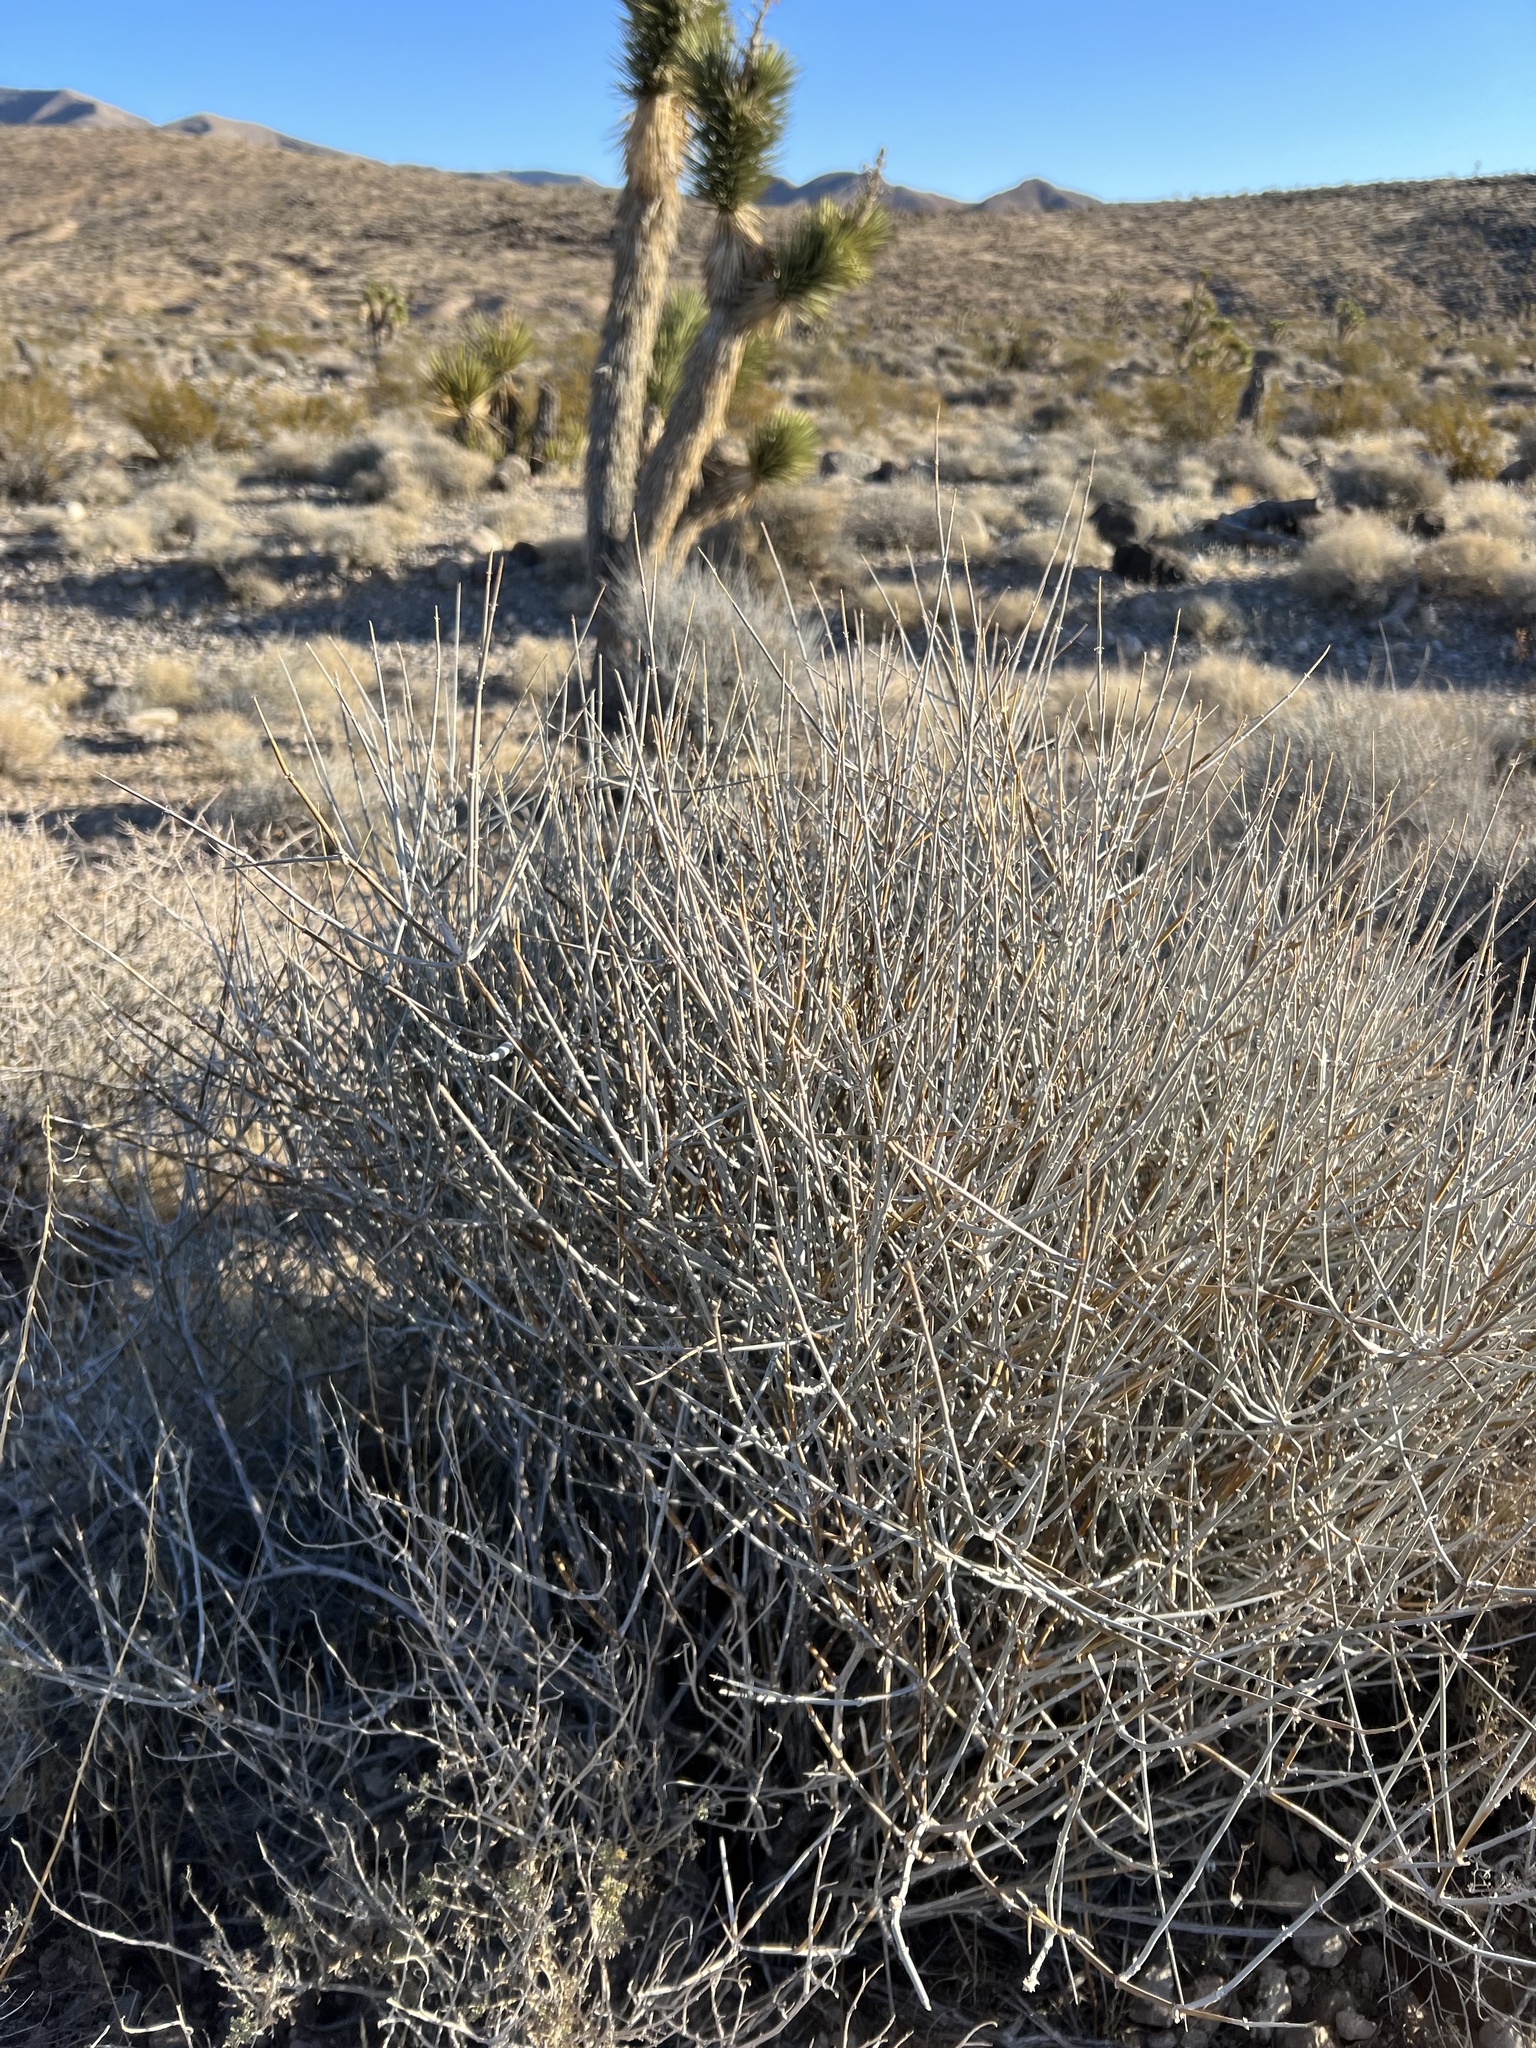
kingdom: Plantae
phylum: Tracheophyta
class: Gnetopsida
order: Ephedrales
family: Ephedraceae
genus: Ephedra
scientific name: Ephedra nevadensis
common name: Gray ephedra
